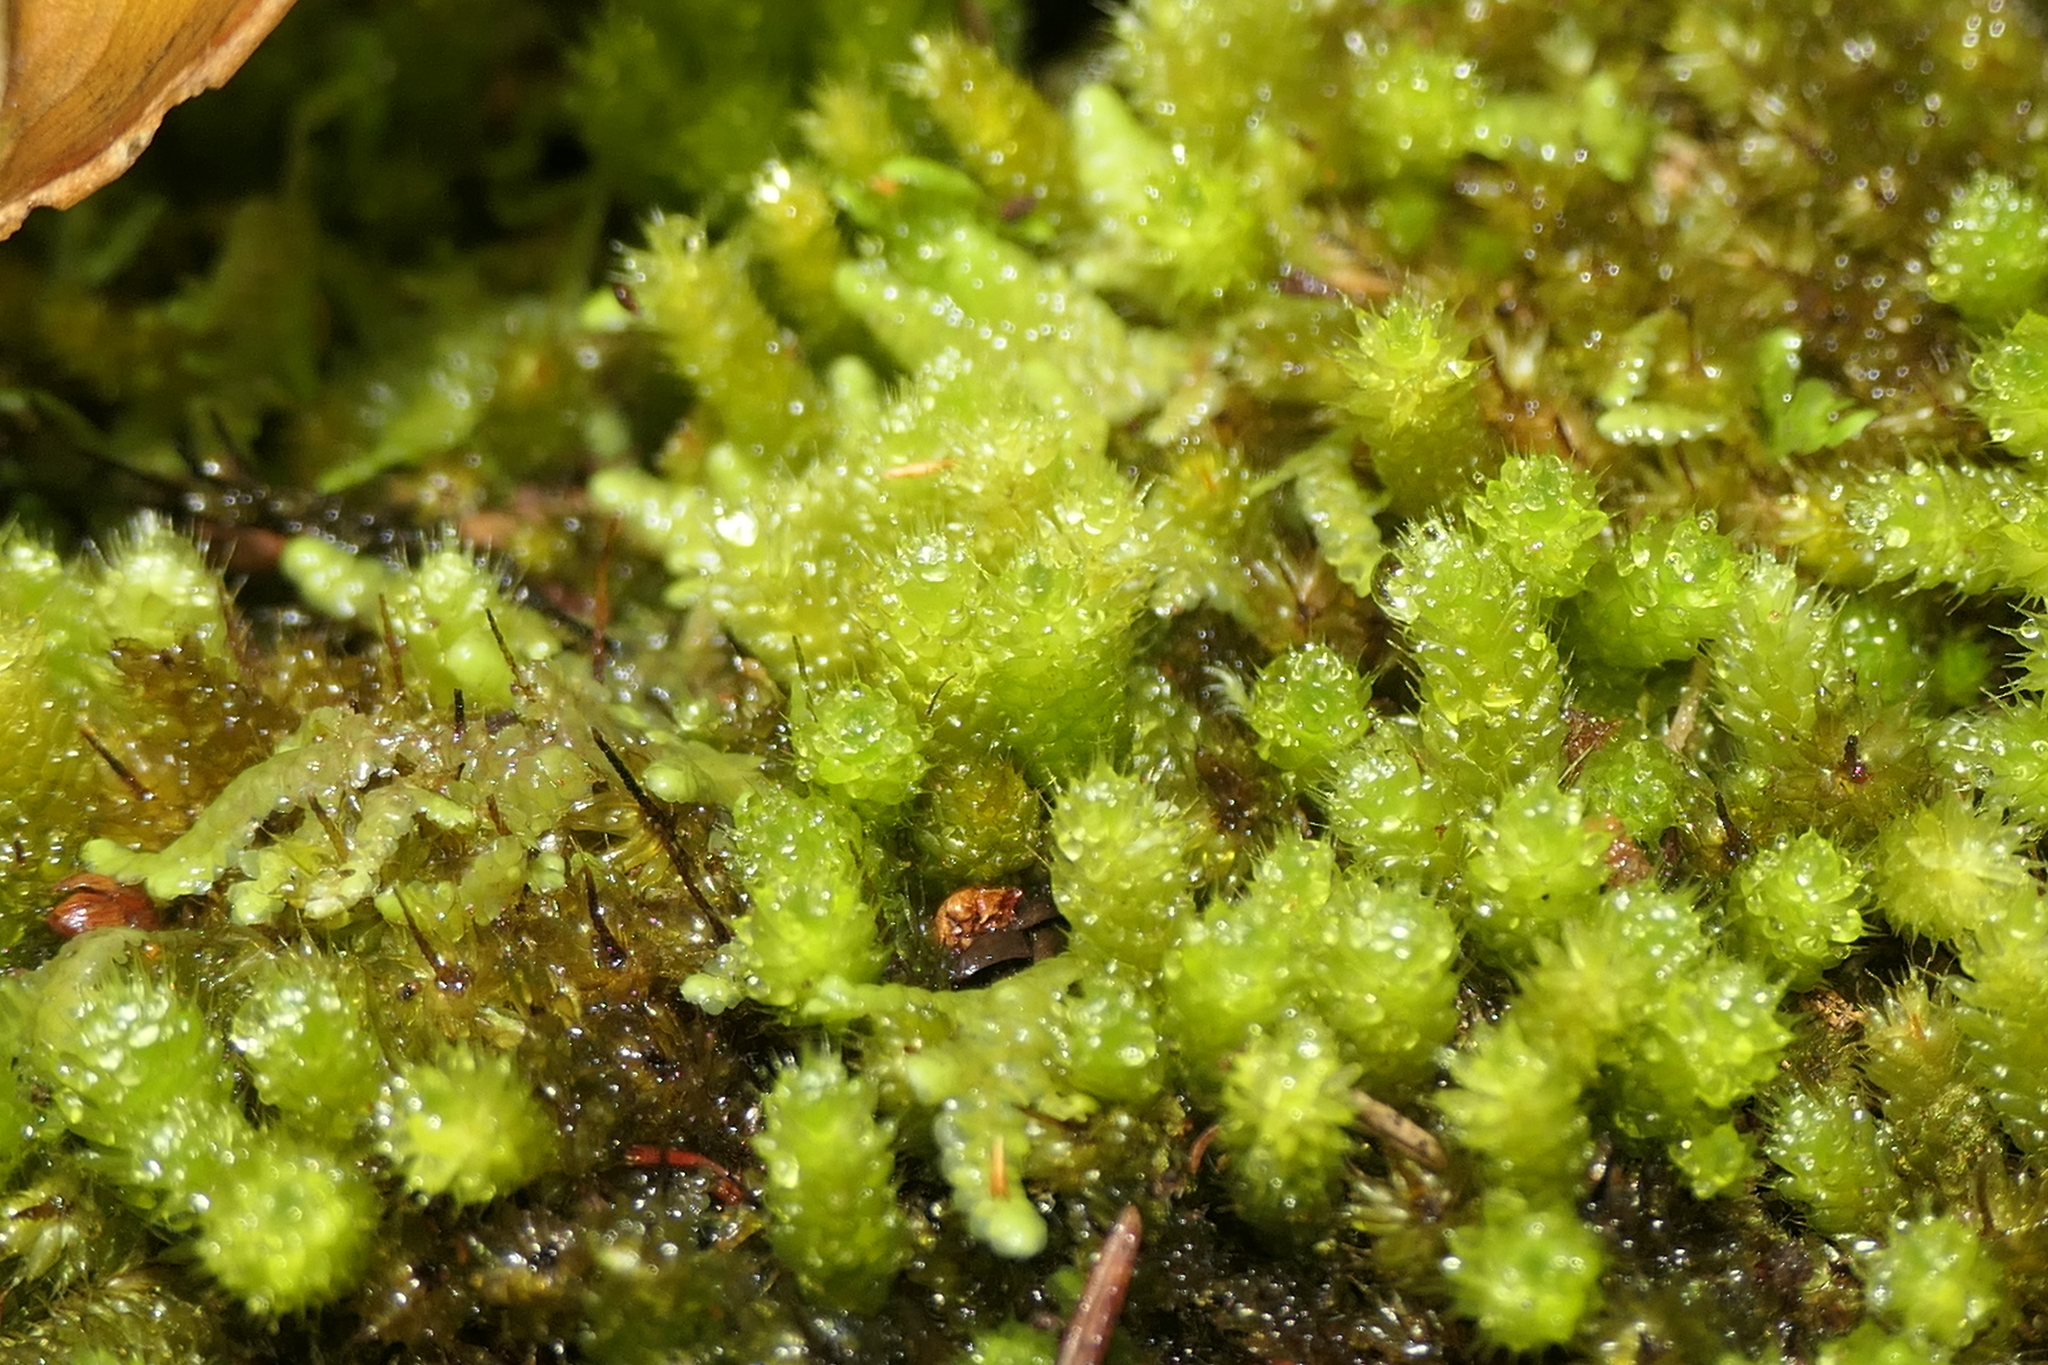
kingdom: Plantae
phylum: Bryophyta
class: Bryopsida
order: Hypnales
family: Myuriaceae
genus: Myurium
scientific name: Myurium hochstetteri
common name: Hare-tail moss
